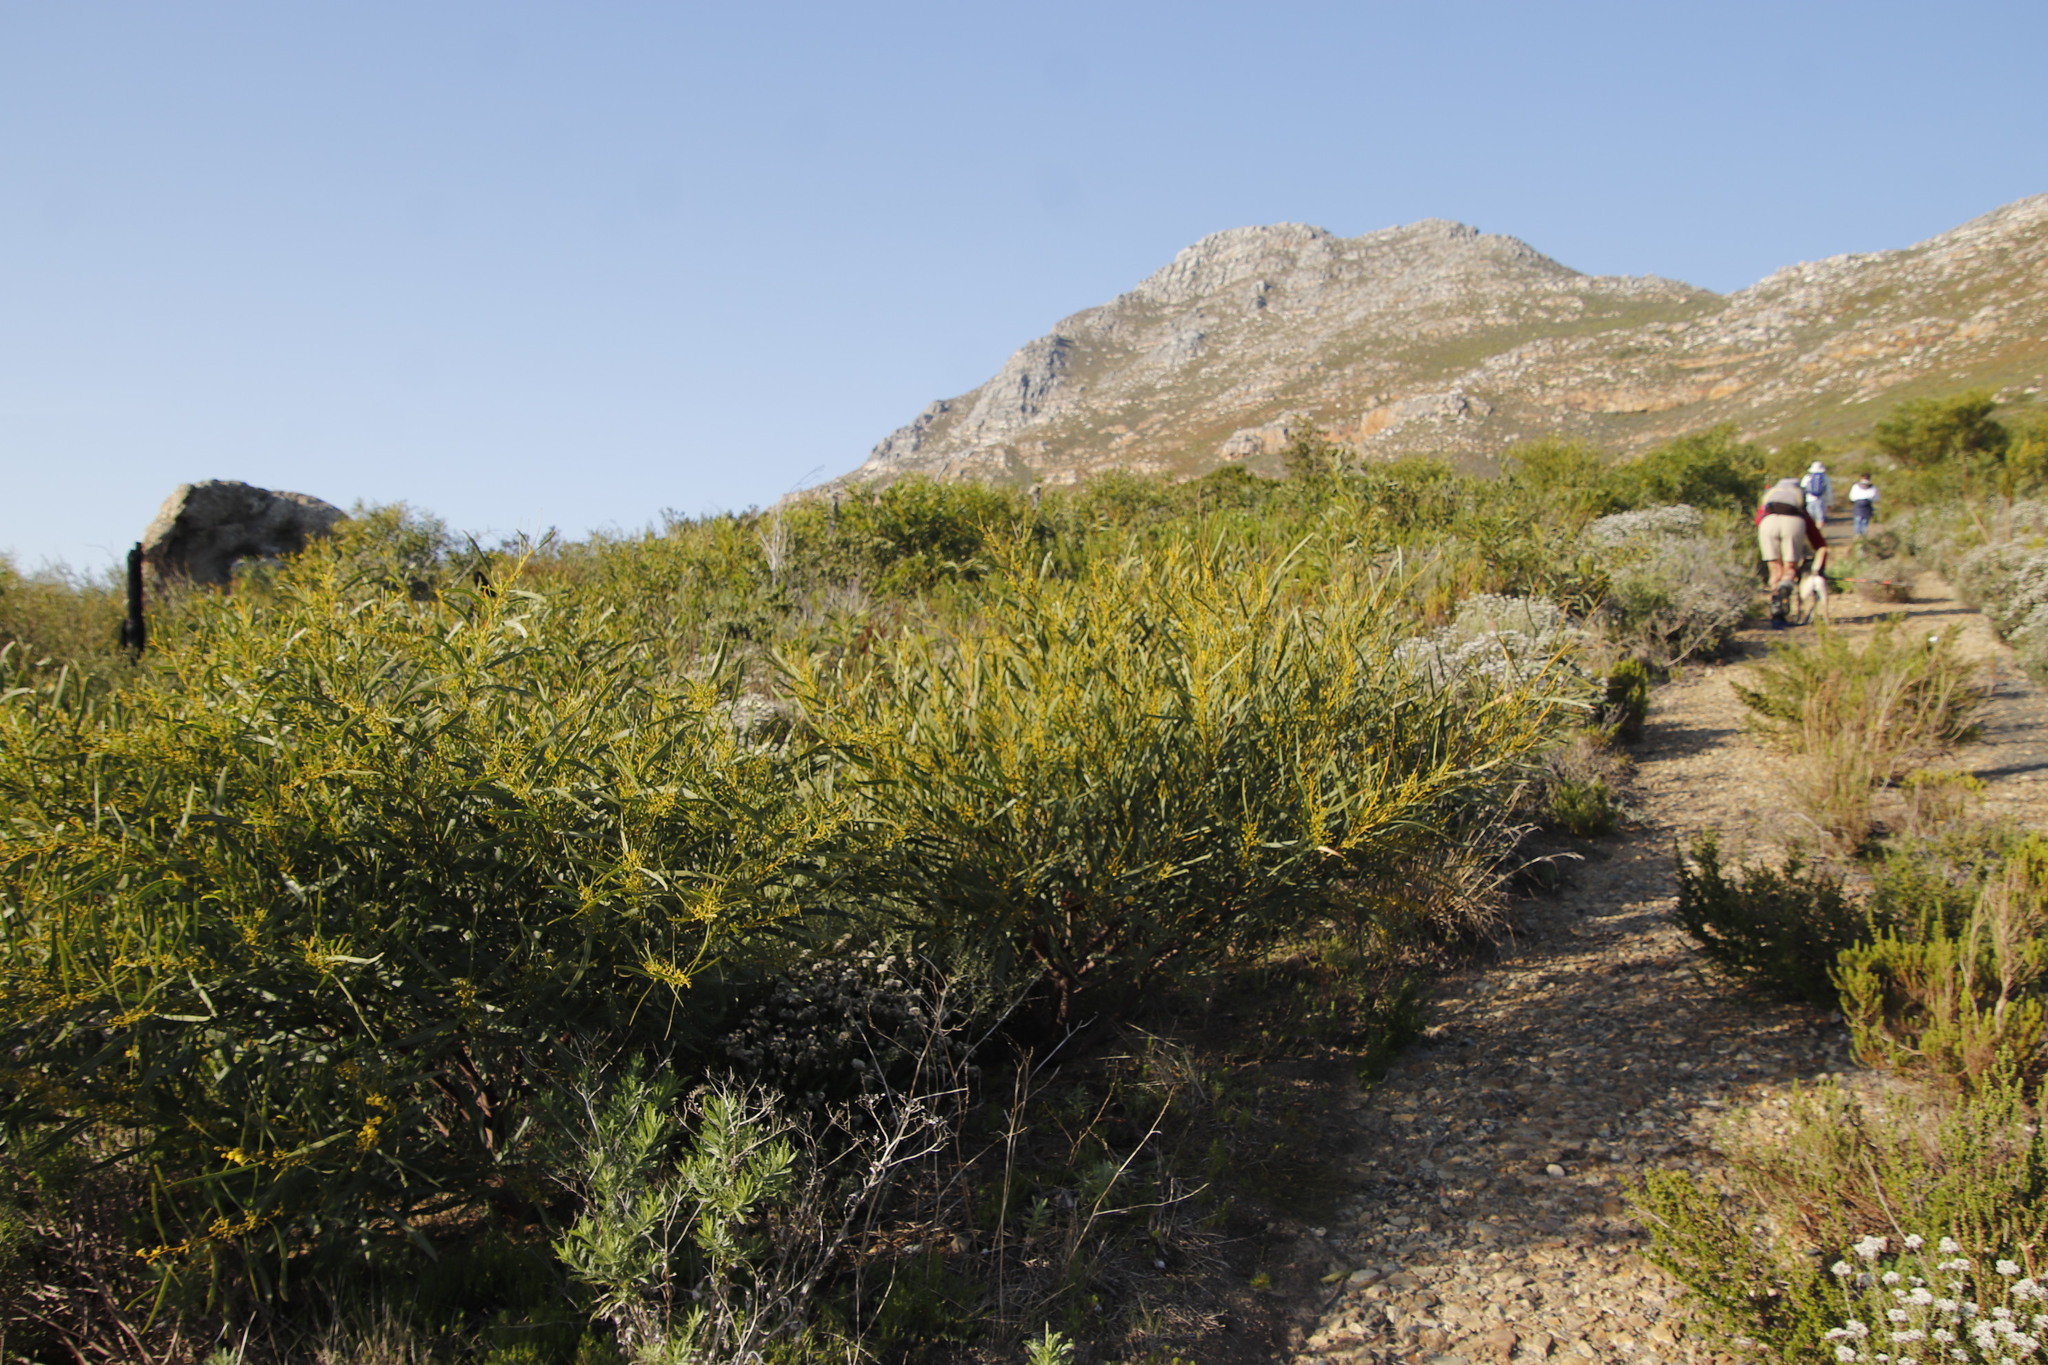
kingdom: Plantae
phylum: Tracheophyta
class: Magnoliopsida
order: Fabales
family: Fabaceae
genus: Acacia
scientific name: Acacia saligna
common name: Orange wattle
